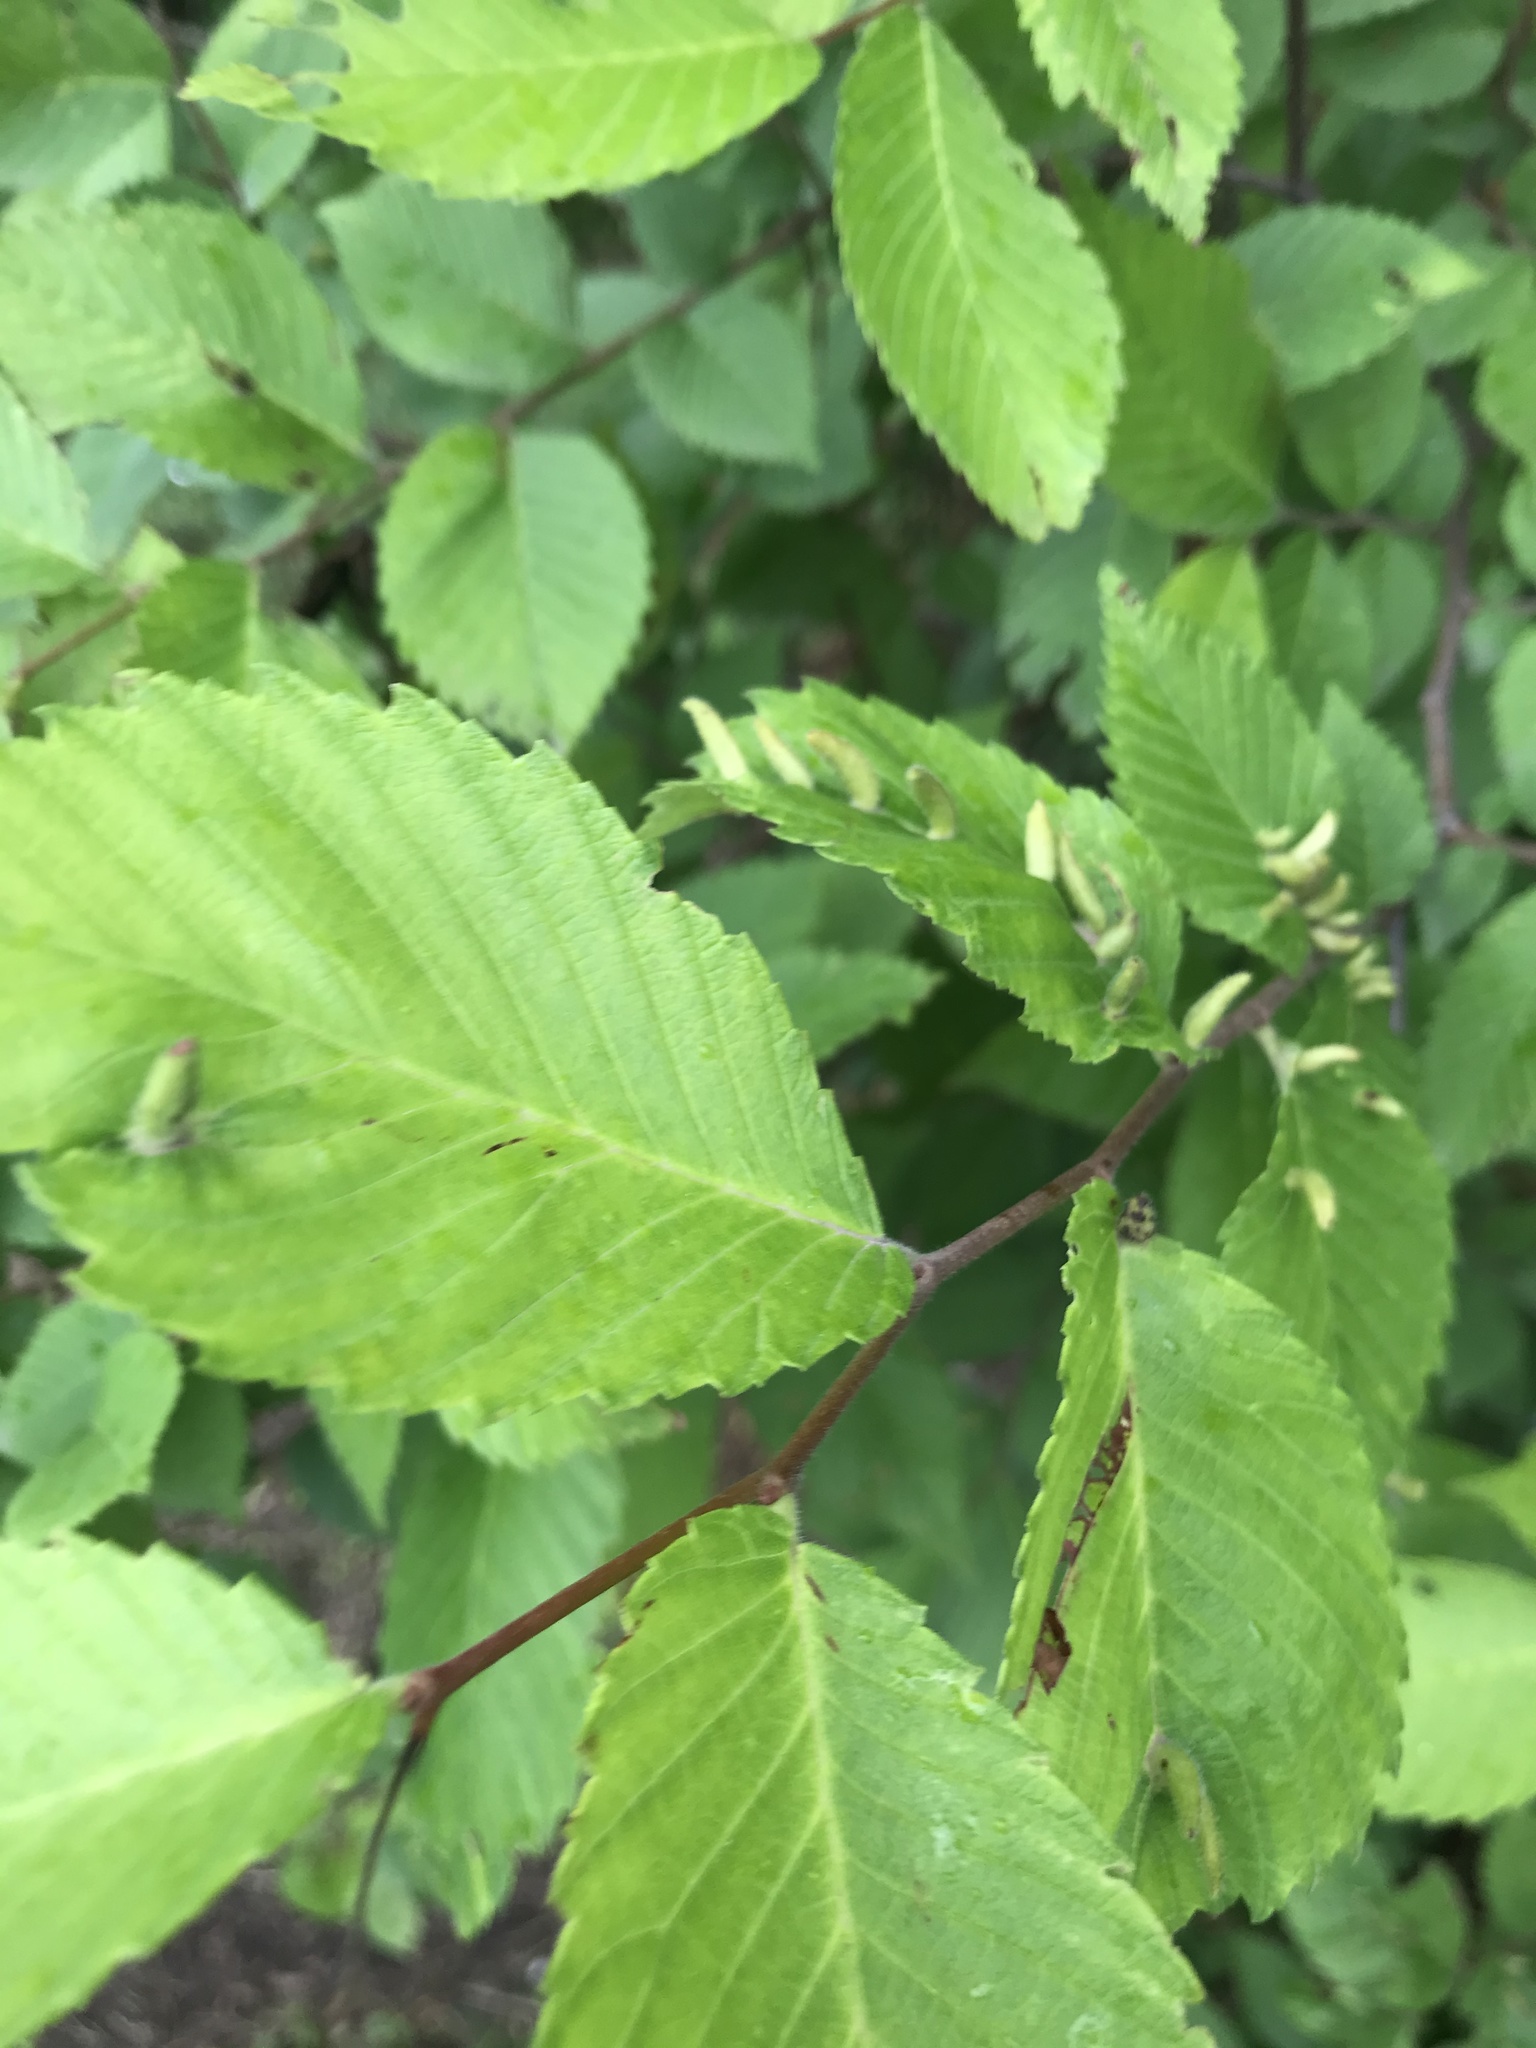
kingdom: Animalia
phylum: Arthropoda
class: Arachnida
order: Trombidiformes
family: Eriophyidae
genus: Aceria
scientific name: Aceria
